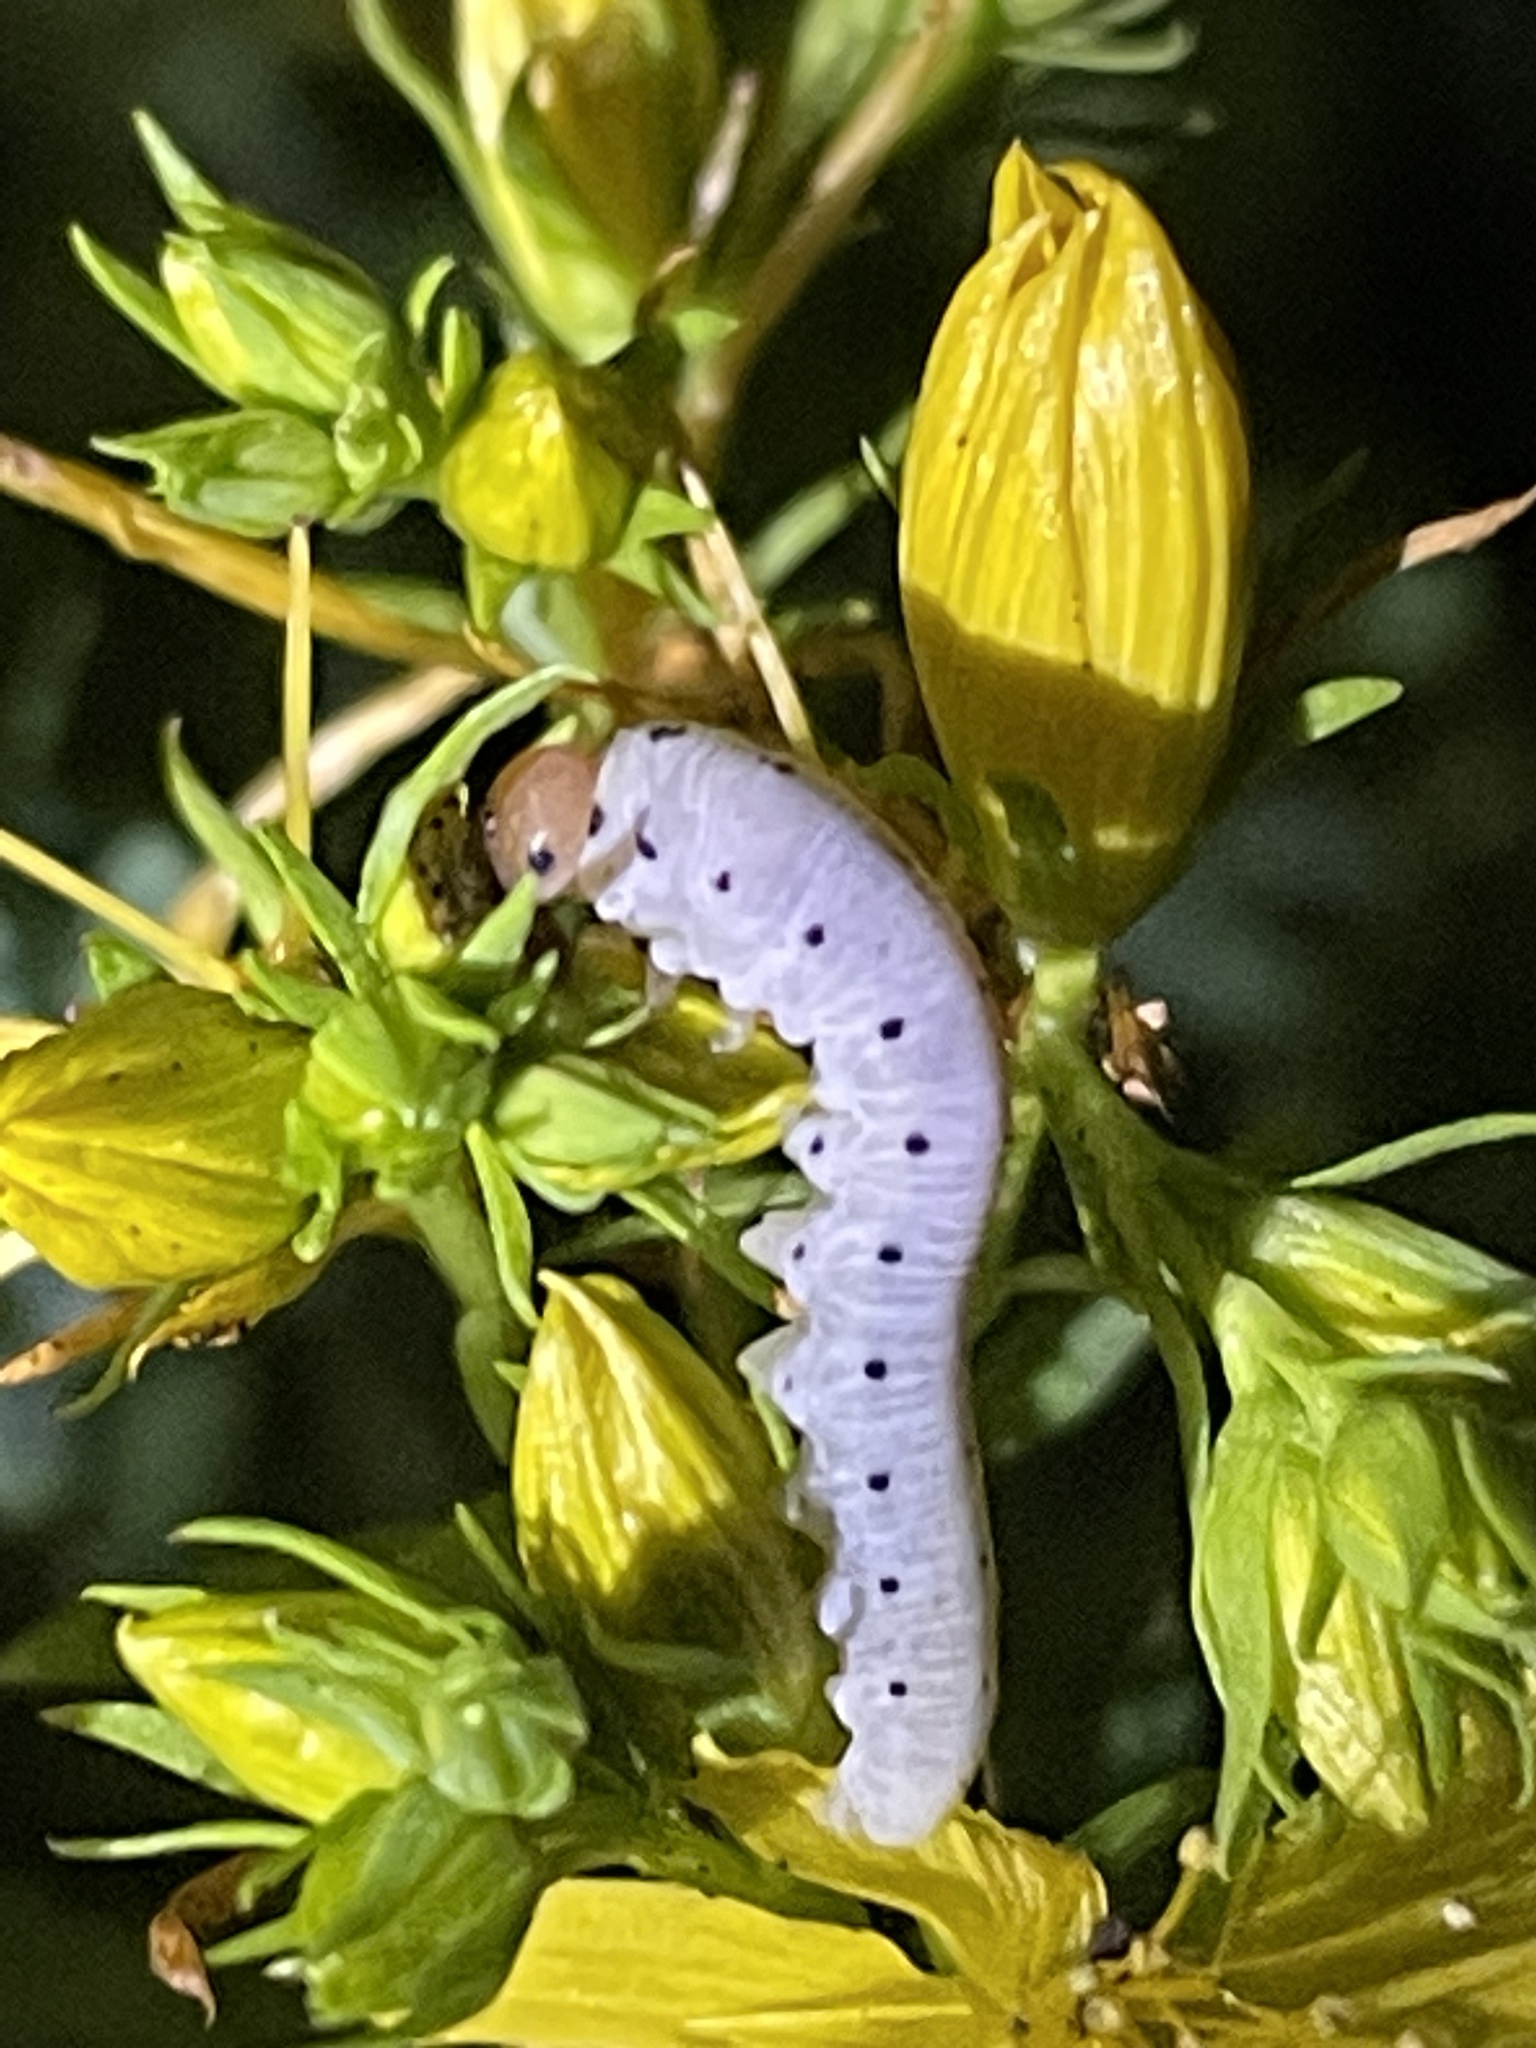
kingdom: Animalia
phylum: Arthropoda
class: Insecta
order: Hymenoptera
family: Tenthredinidae
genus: Tenthredo
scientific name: Tenthredo zona
